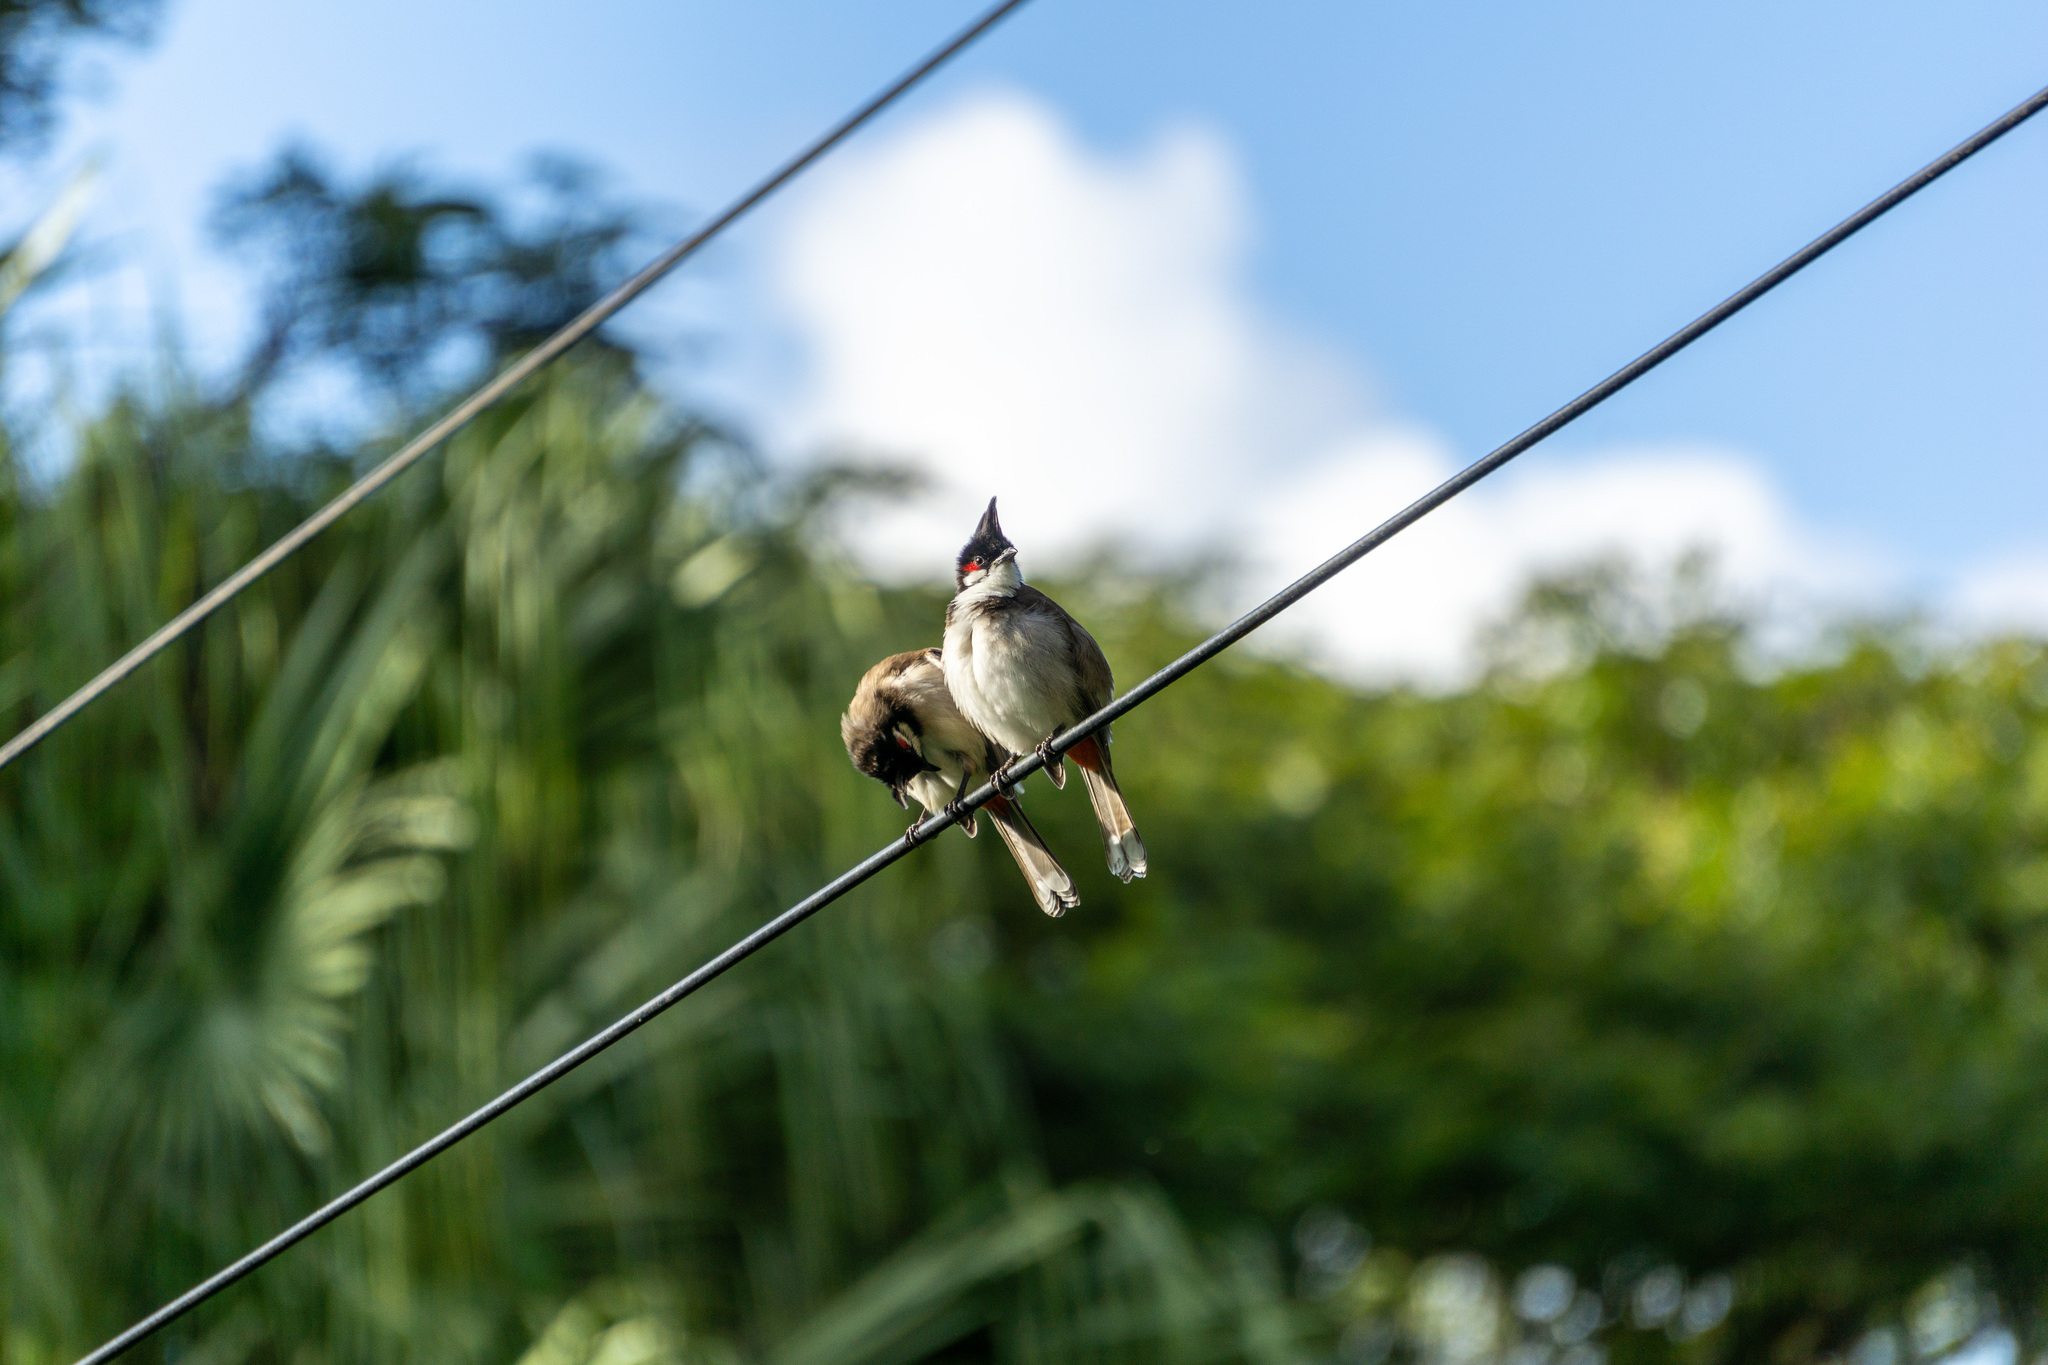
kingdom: Animalia
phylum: Chordata
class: Aves
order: Passeriformes
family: Pycnonotidae
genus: Pycnonotus
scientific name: Pycnonotus jocosus
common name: Red-whiskered bulbul
